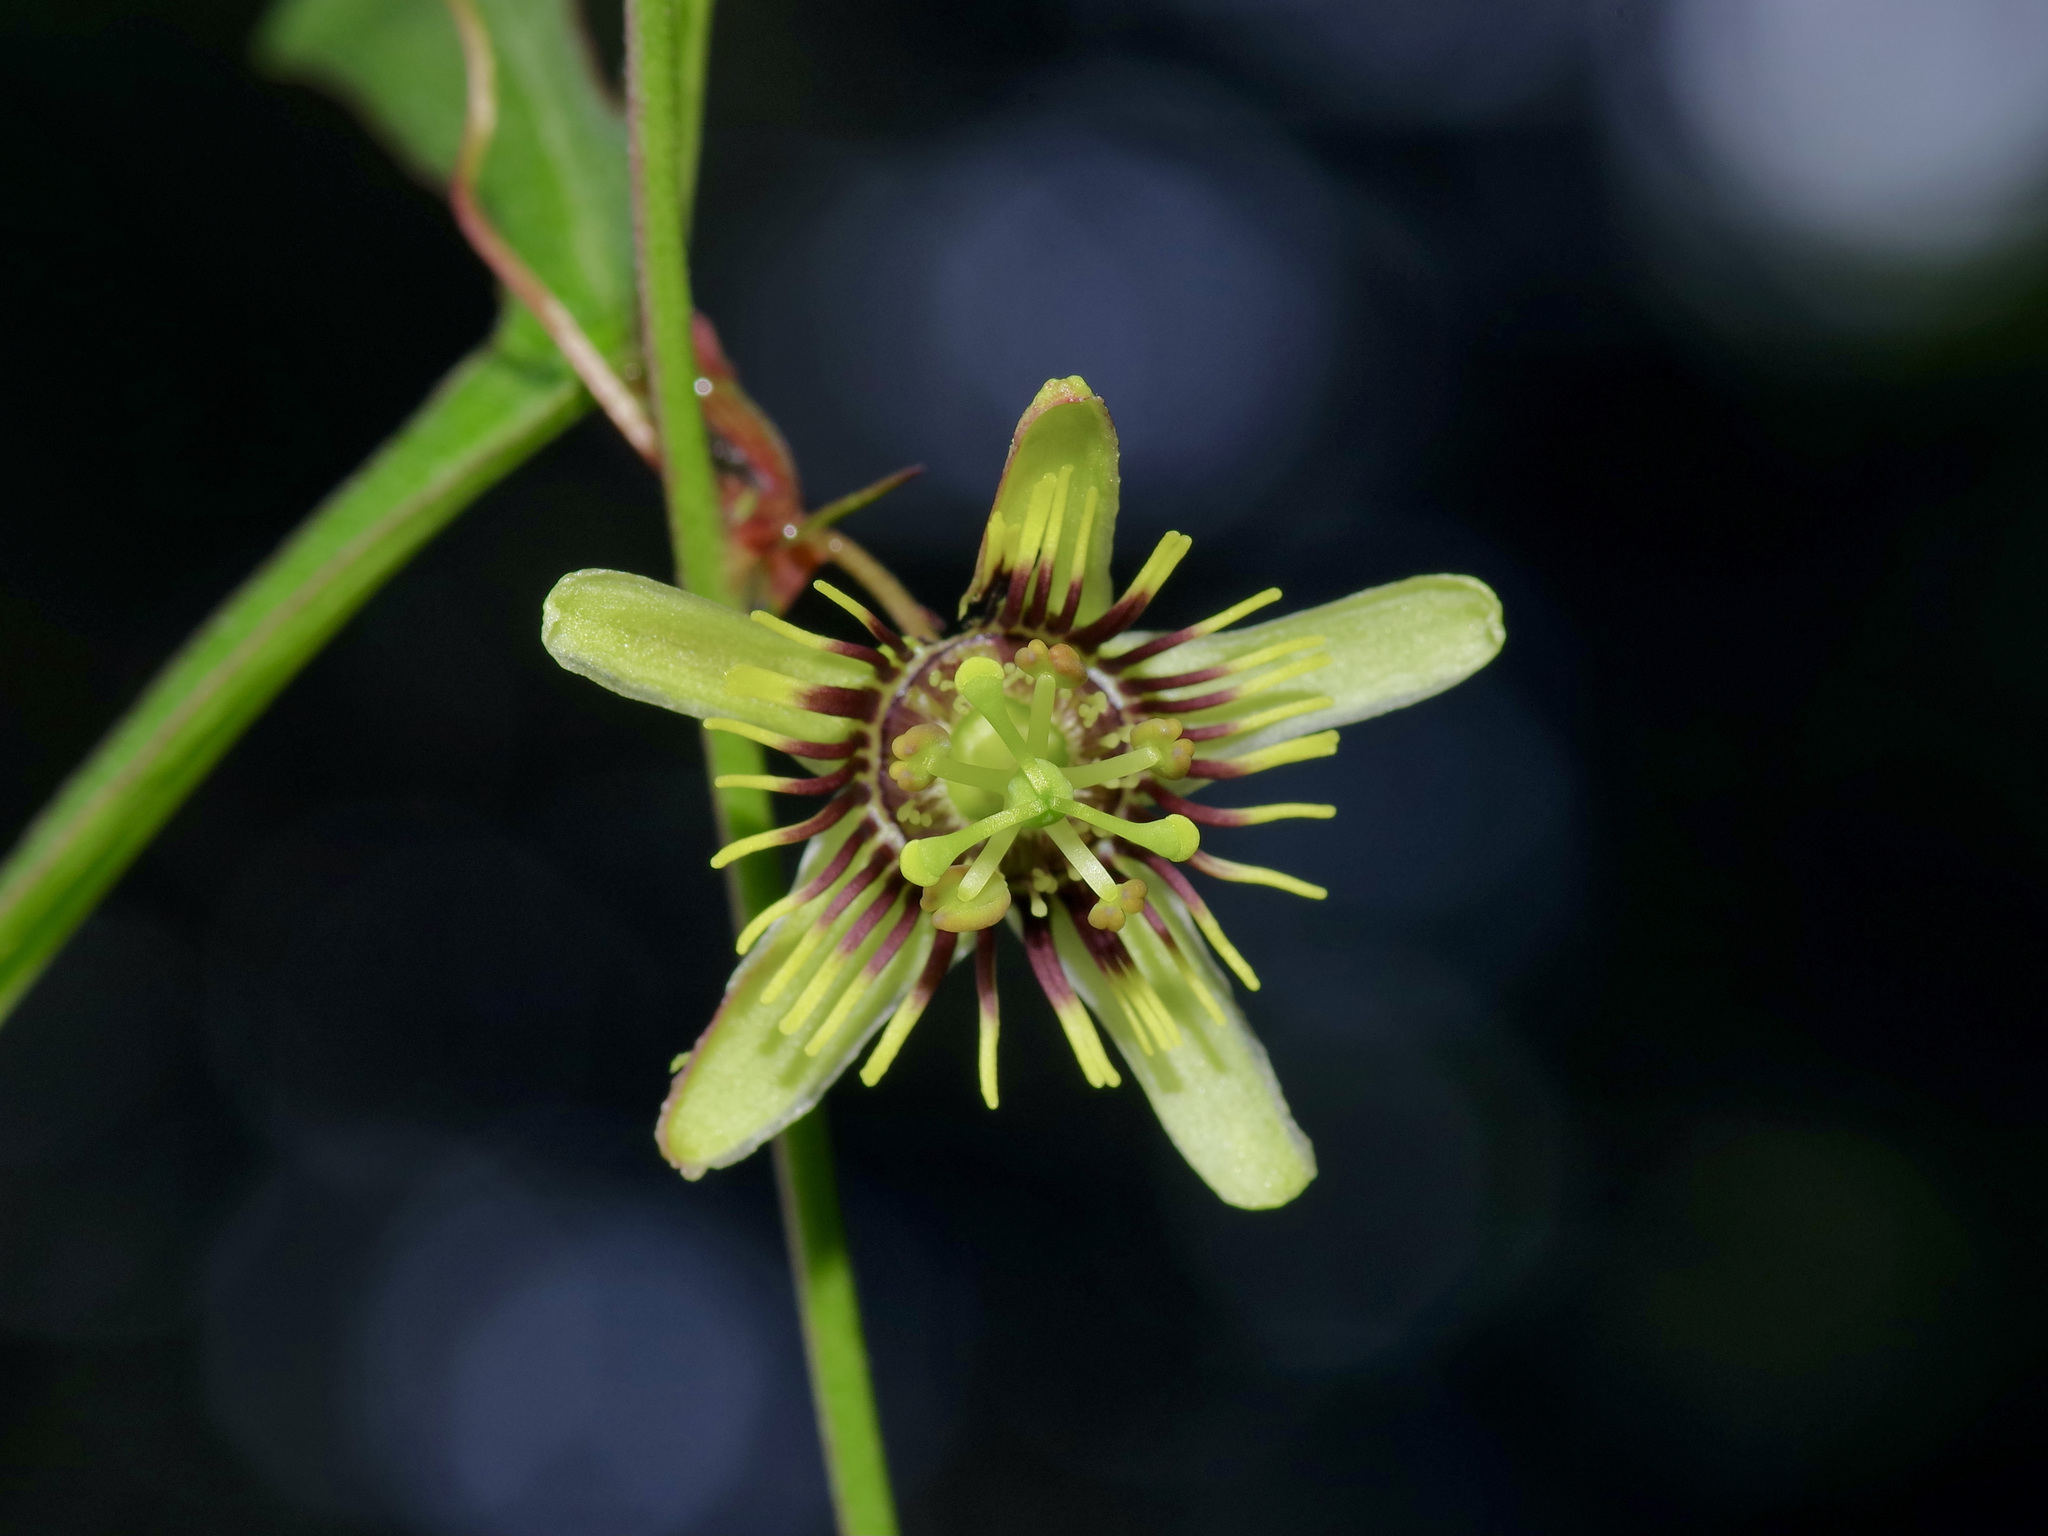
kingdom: Plantae
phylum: Tracheophyta
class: Magnoliopsida
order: Malpighiales
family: Passifloraceae
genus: Passiflora
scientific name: Passiflora tenuiloba
